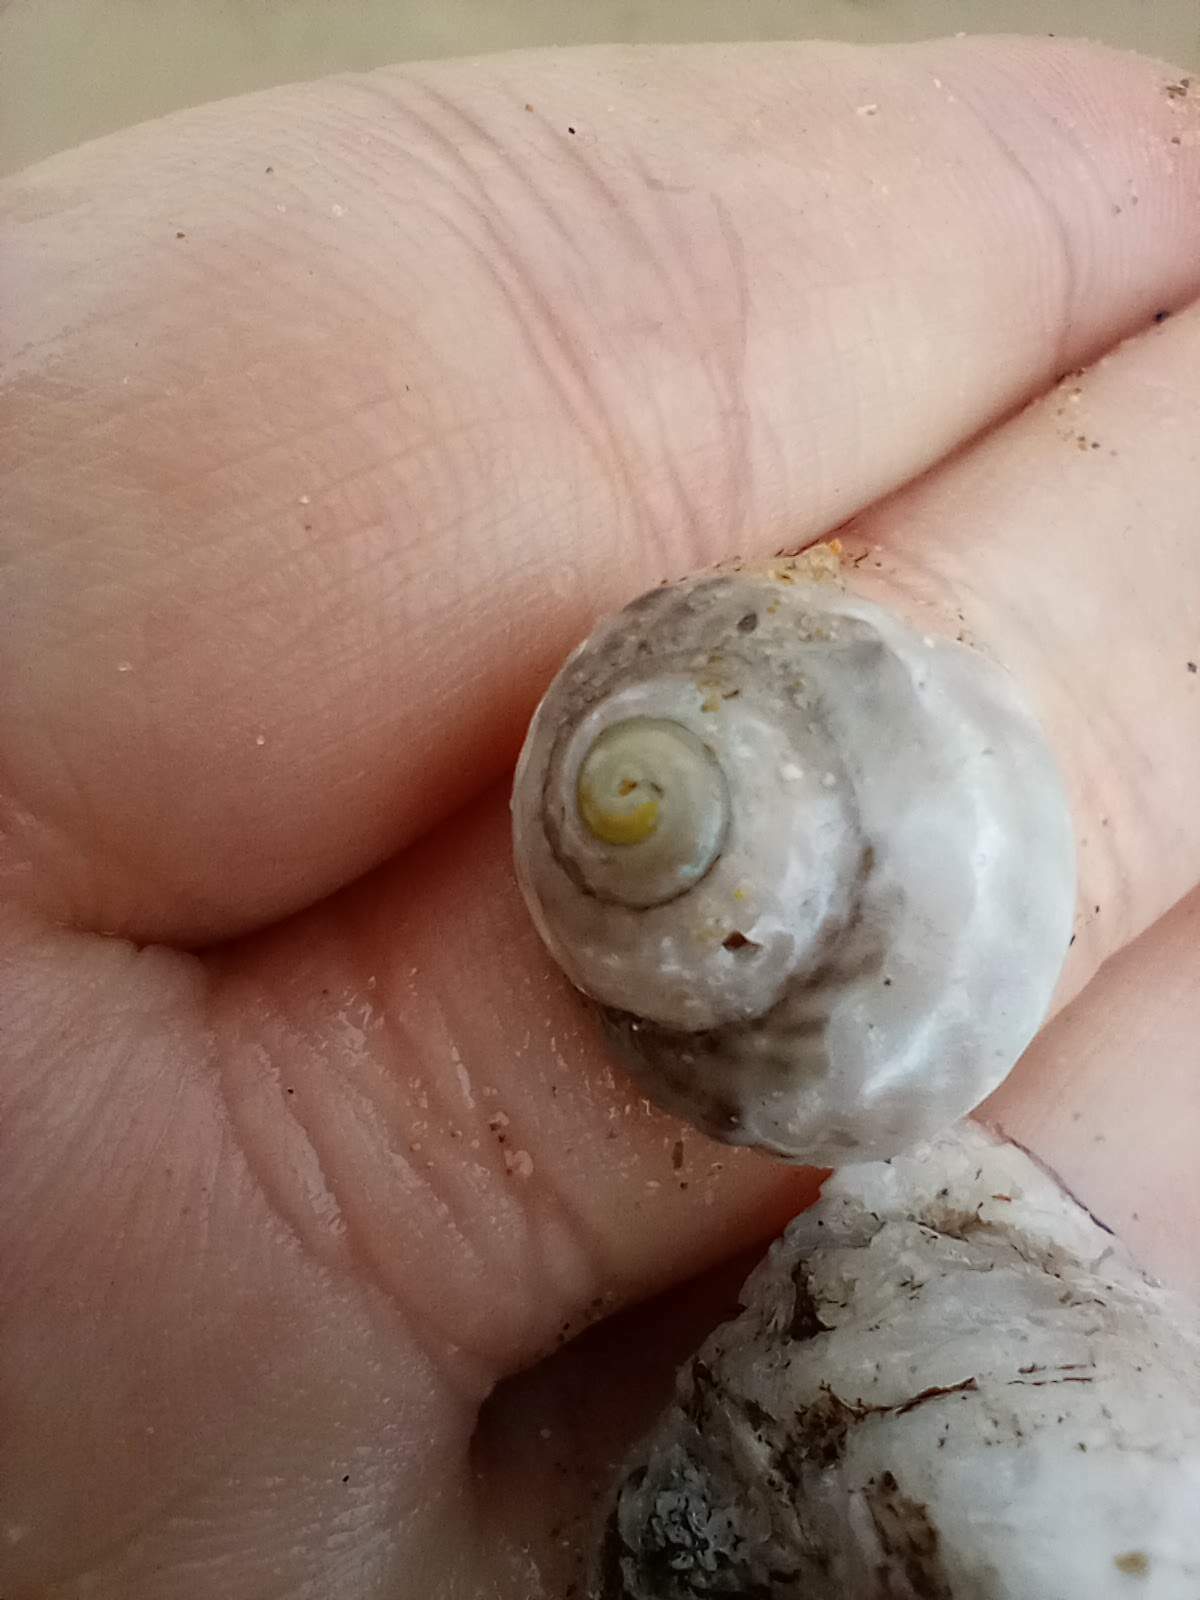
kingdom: Animalia
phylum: Mollusca
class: Gastropoda
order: Trochida
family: Tegulidae
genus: Tegula
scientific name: Tegula aureotincta
